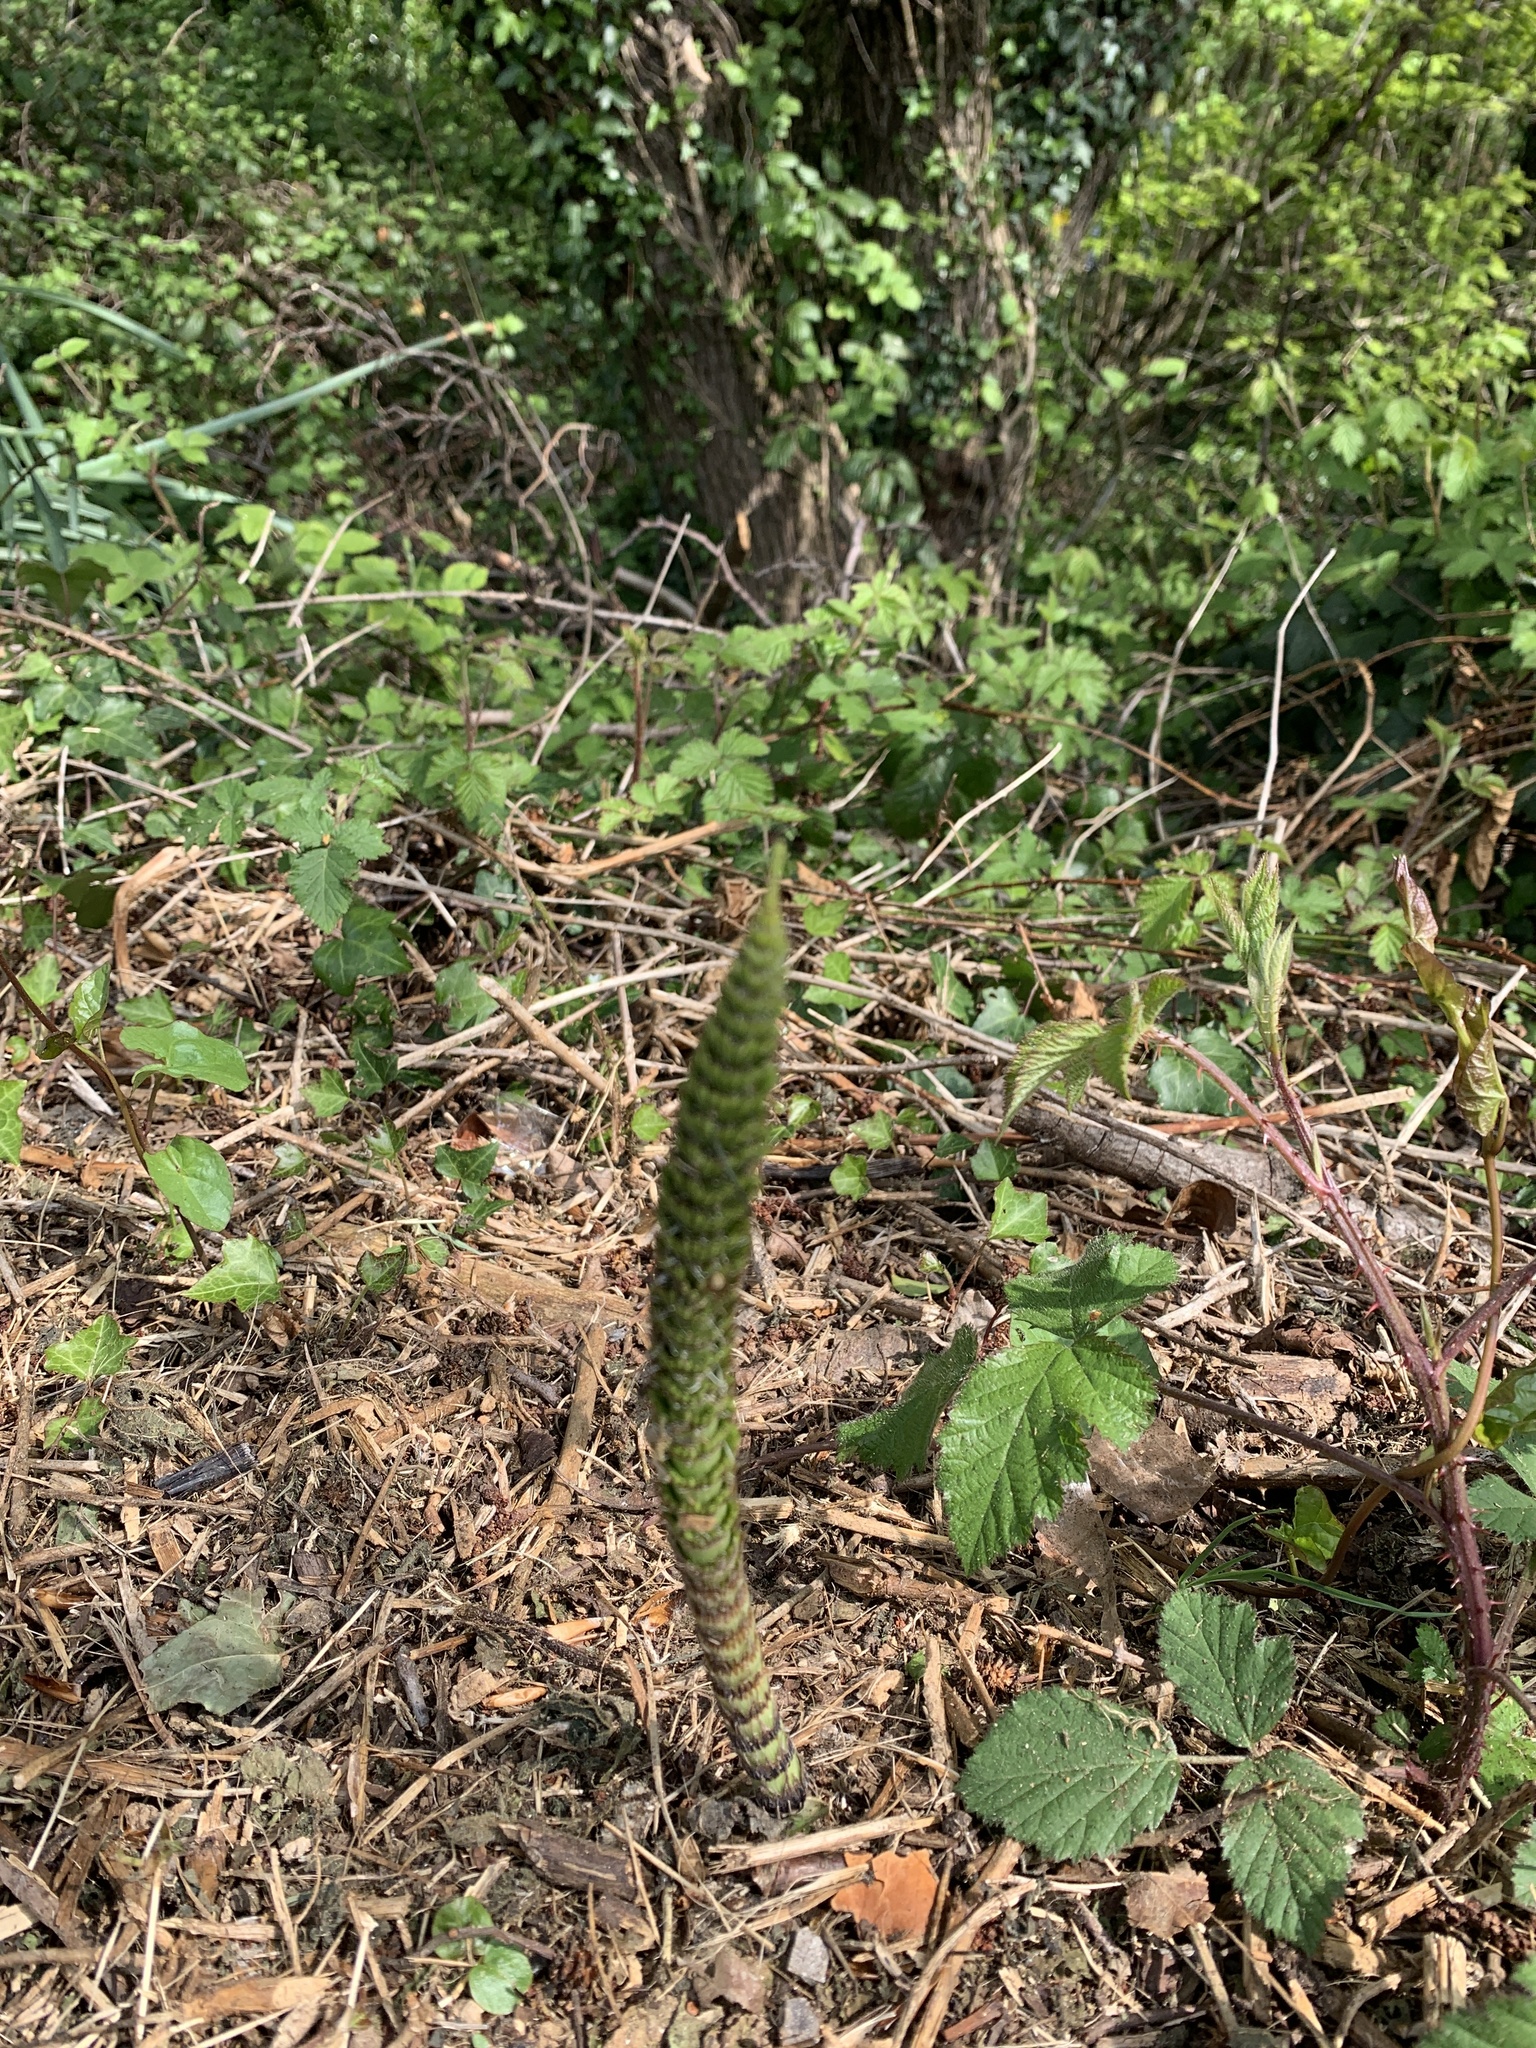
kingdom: Plantae
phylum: Tracheophyta
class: Polypodiopsida
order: Equisetales
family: Equisetaceae
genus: Equisetum
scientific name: Equisetum telmateia
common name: Great horsetail
